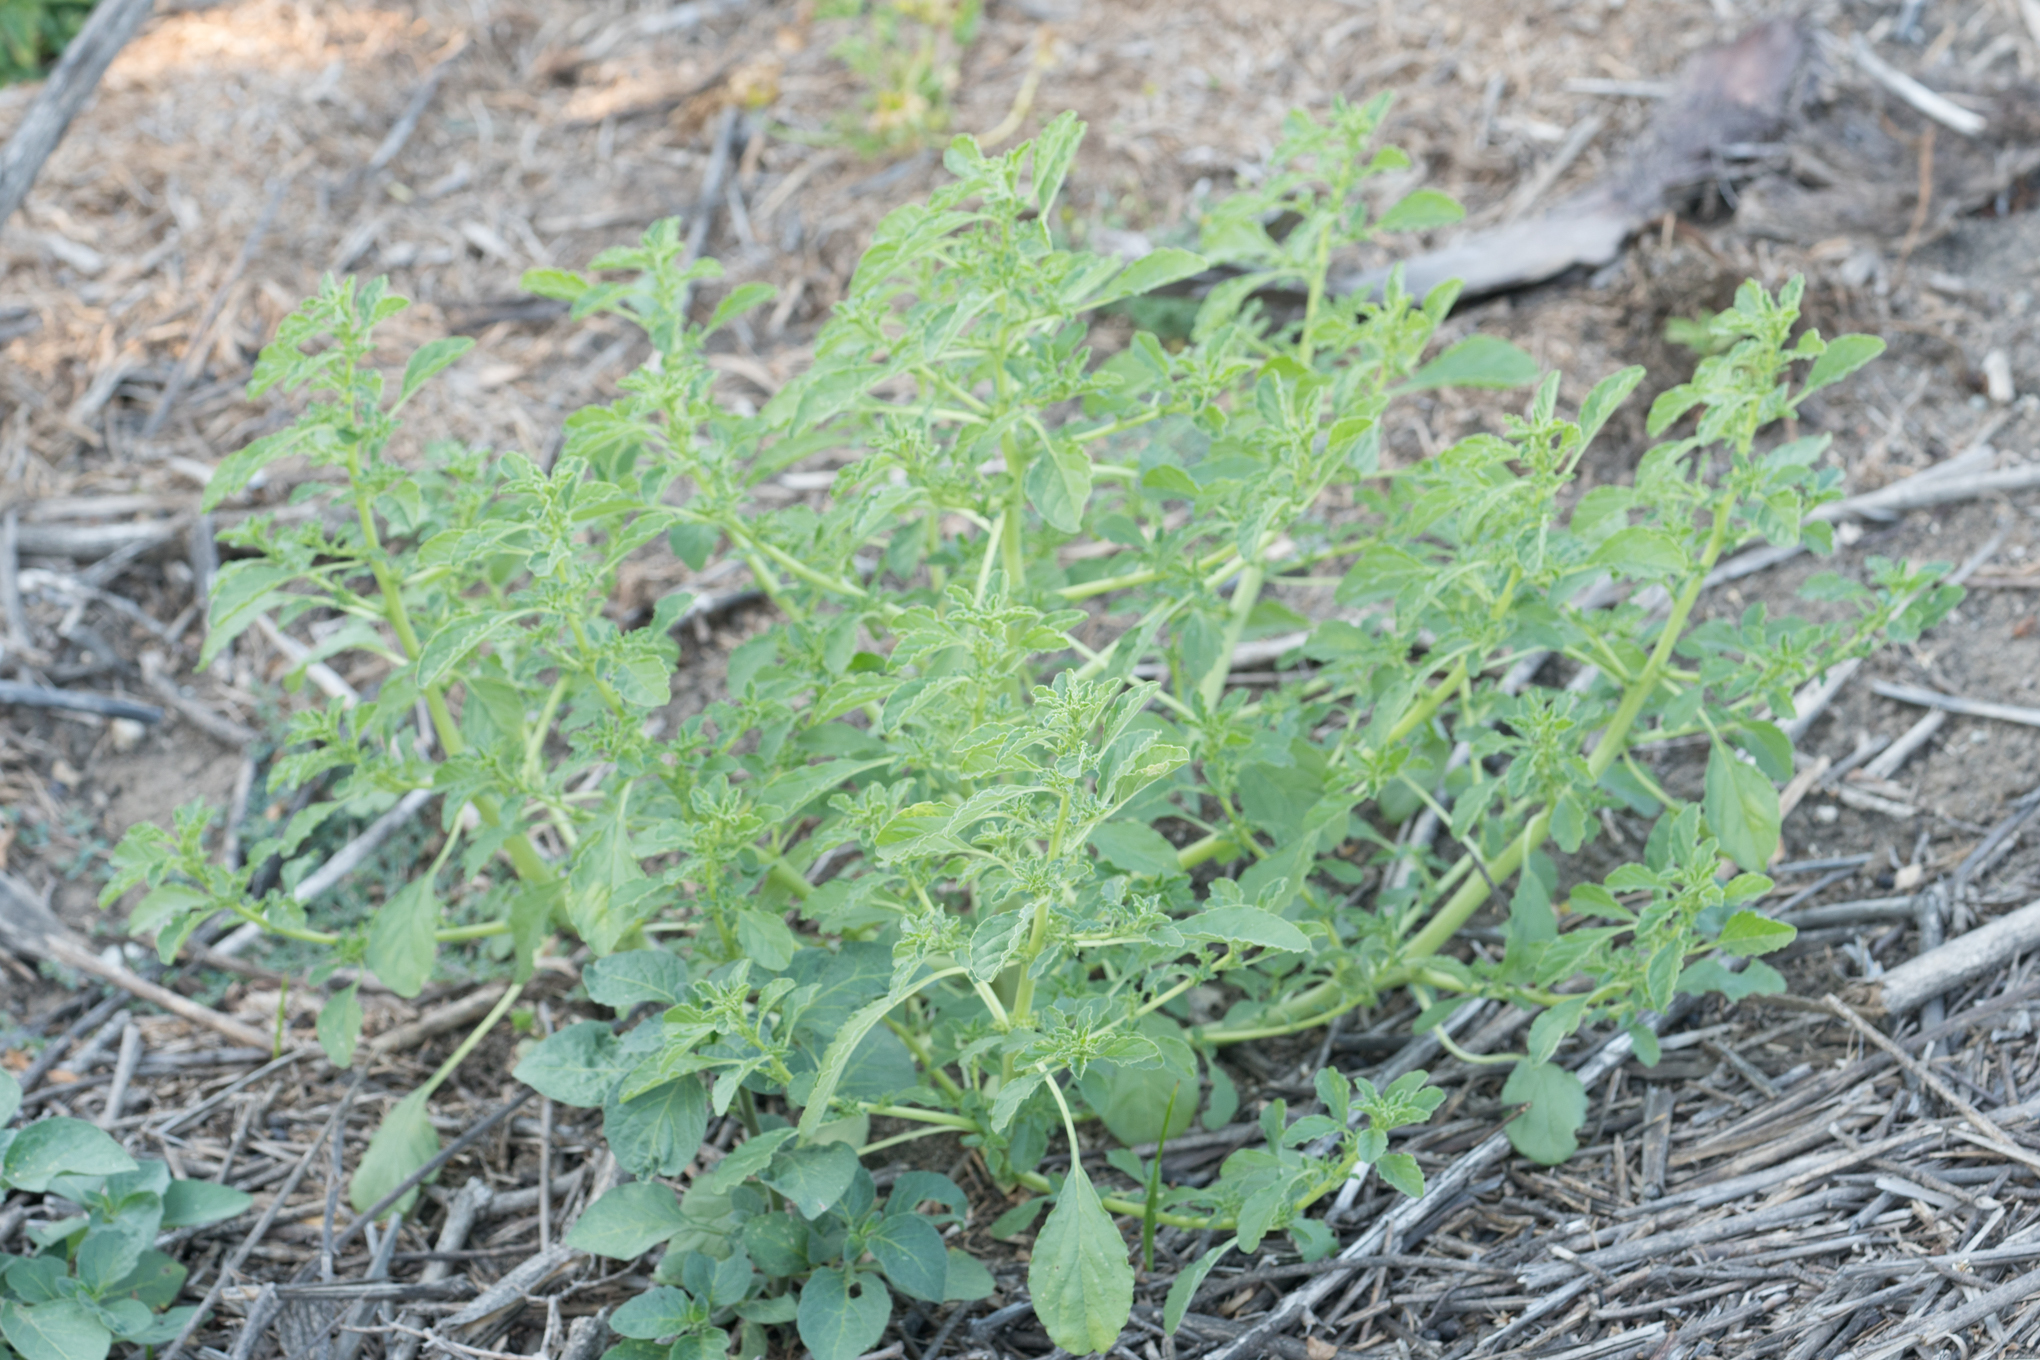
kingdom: Plantae
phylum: Tracheophyta
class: Magnoliopsida
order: Caryophyllales
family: Amaranthaceae
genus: Amaranthus
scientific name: Amaranthus albus
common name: White pigweed
